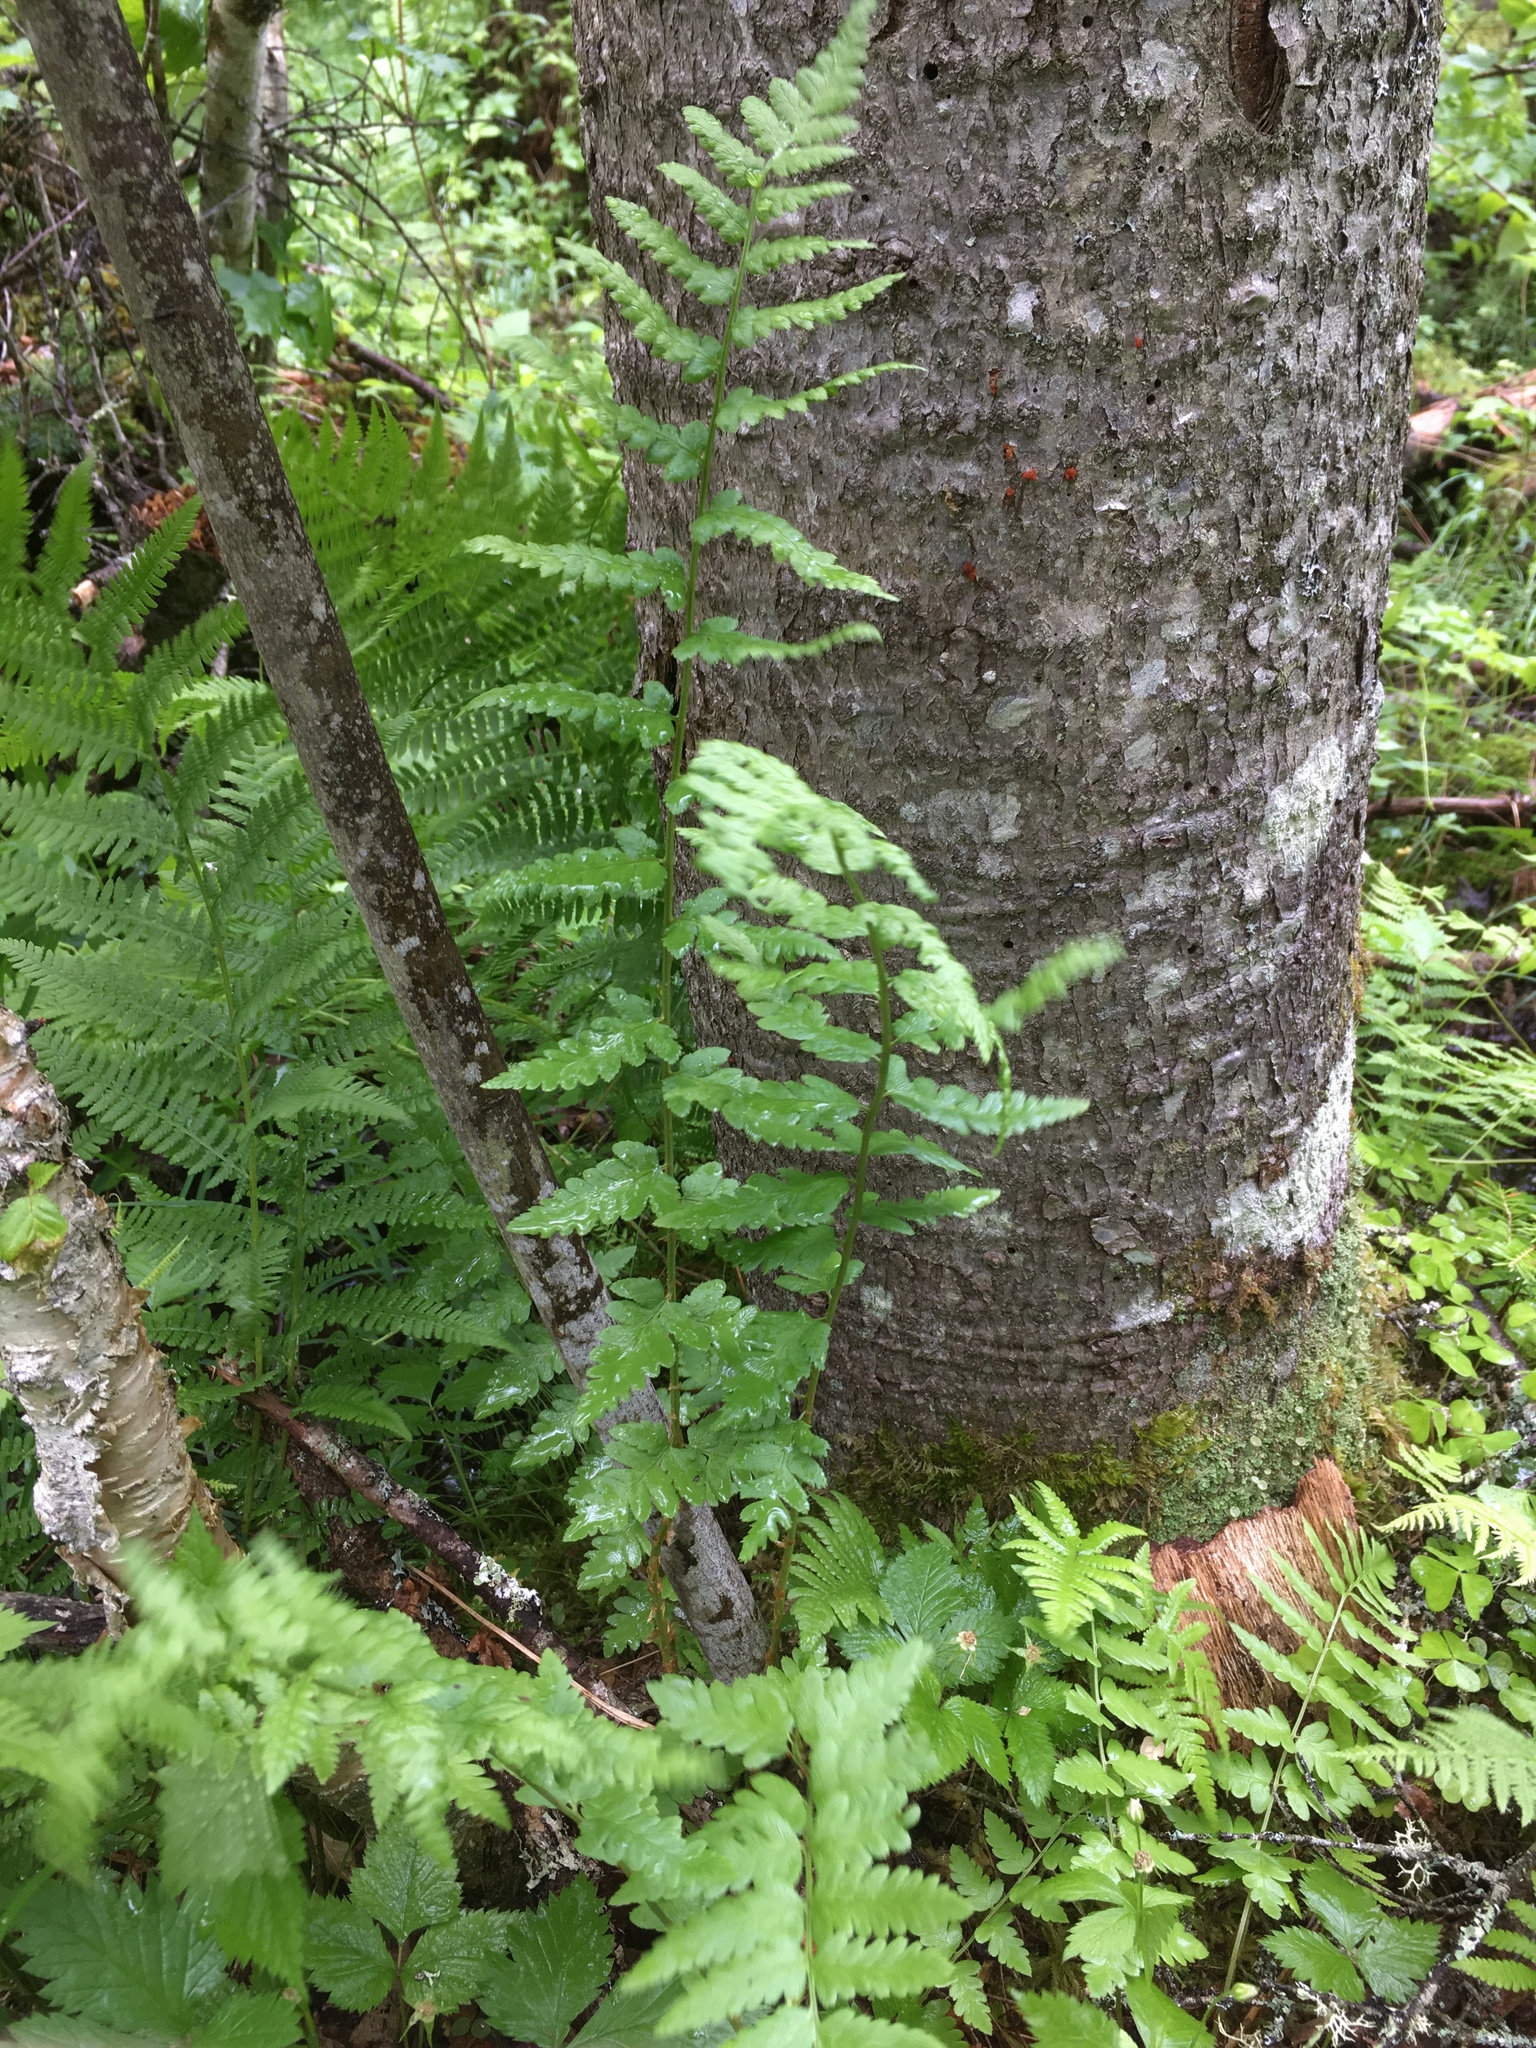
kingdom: Plantae
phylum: Tracheophyta
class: Polypodiopsida
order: Polypodiales
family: Dryopteridaceae
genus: Dryopteris
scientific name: Dryopteris cristata
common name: Crested wood fern
